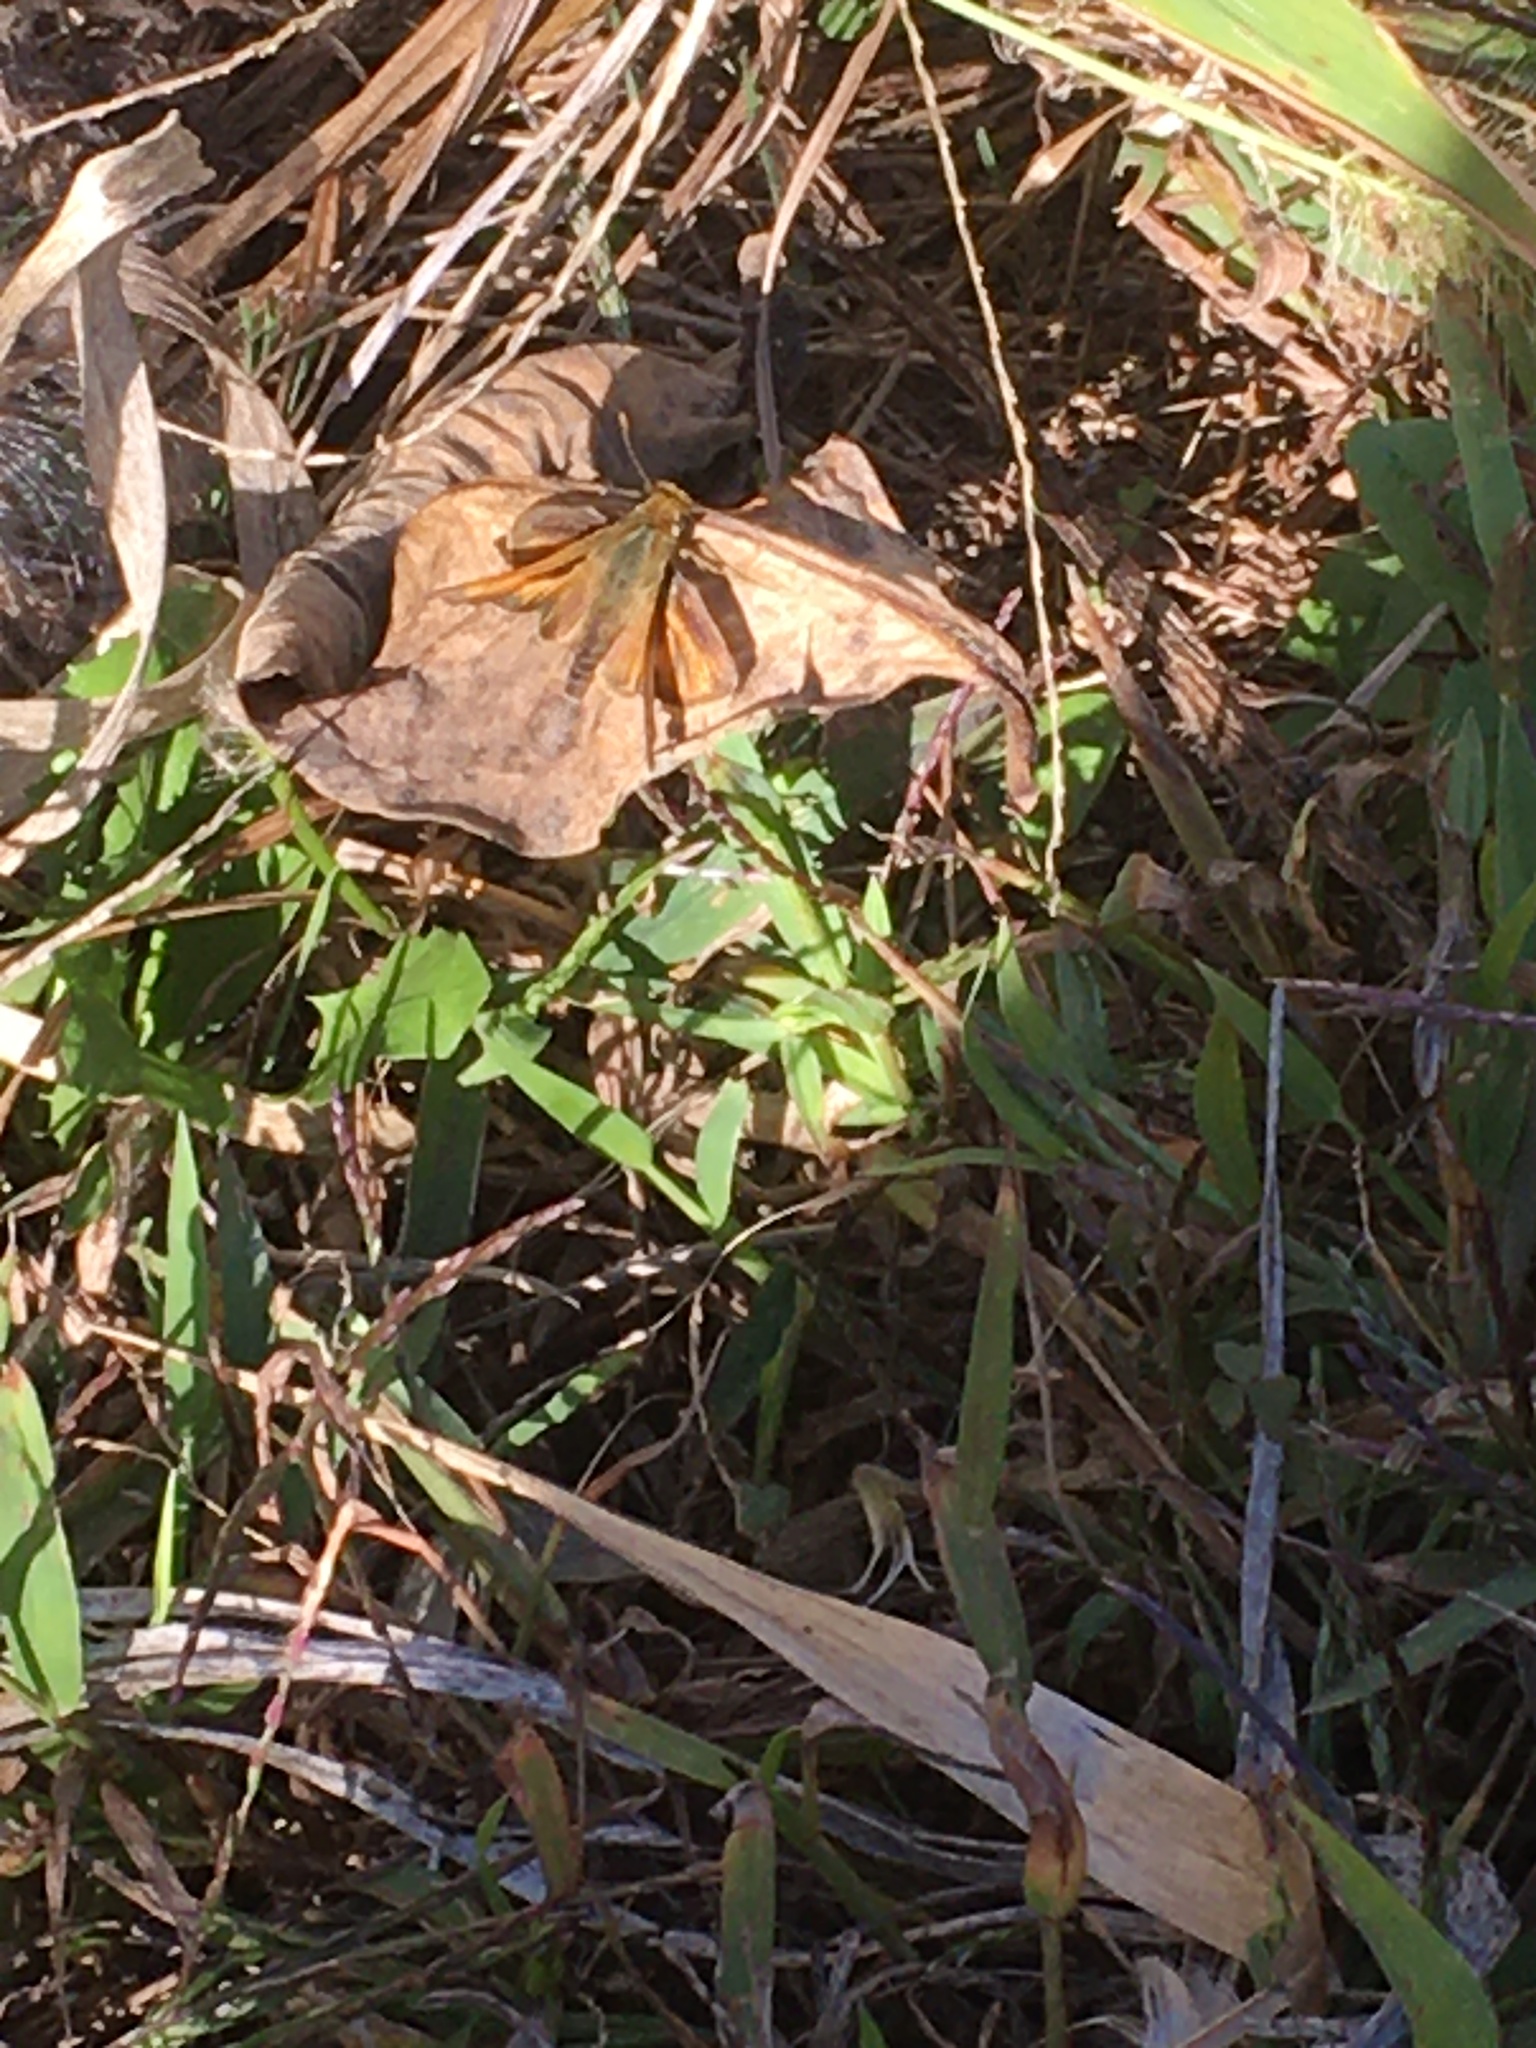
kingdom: Animalia
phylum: Arthropoda
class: Insecta
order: Lepidoptera
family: Hesperiidae
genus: Atalopedes
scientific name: Atalopedes
